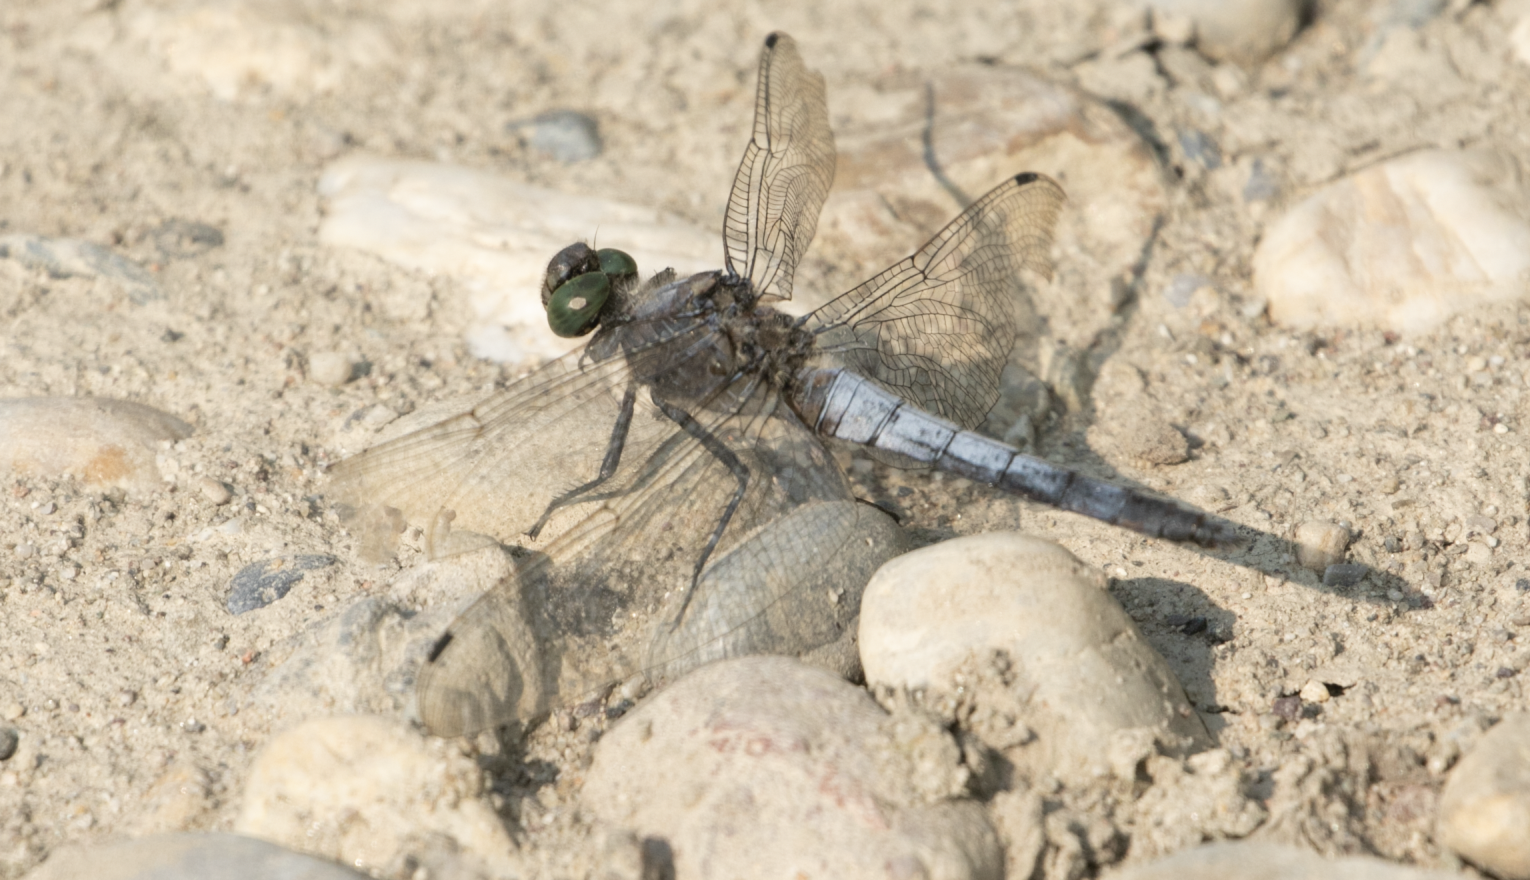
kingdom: Animalia
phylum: Arthropoda
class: Insecta
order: Odonata
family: Libellulidae
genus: Orthetrum
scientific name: Orthetrum cancellatum
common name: Black-tailed skimmer
